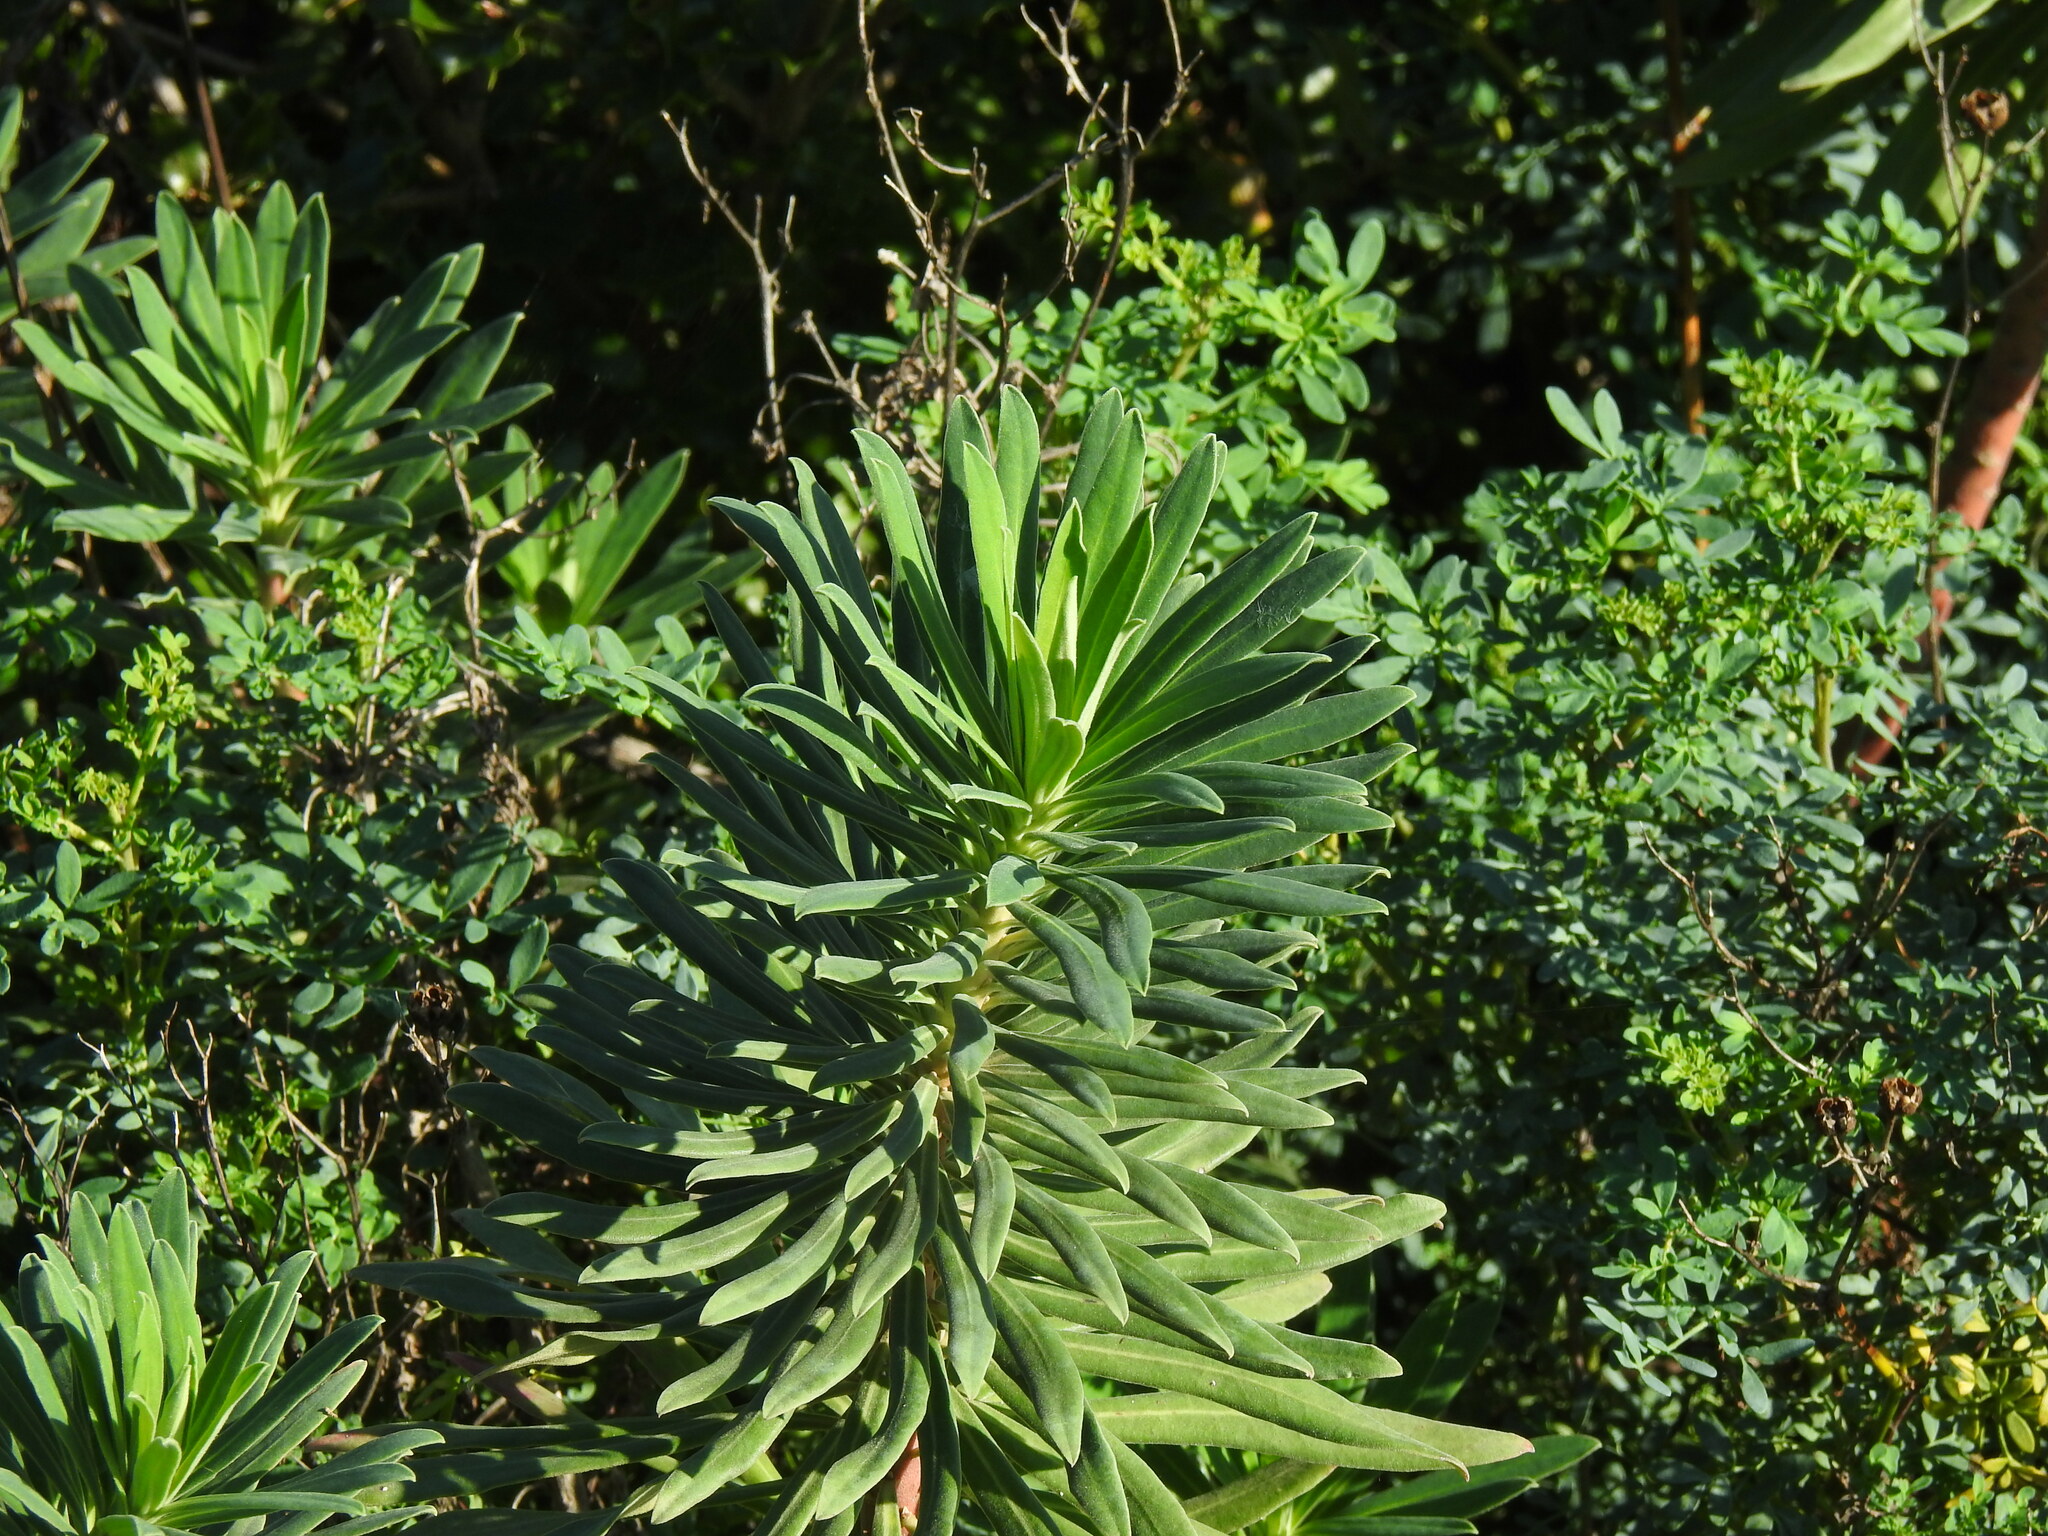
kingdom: Plantae
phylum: Tracheophyta
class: Magnoliopsida
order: Malpighiales
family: Euphorbiaceae
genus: Euphorbia
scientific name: Euphorbia characias
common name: Mediterranean spurge
